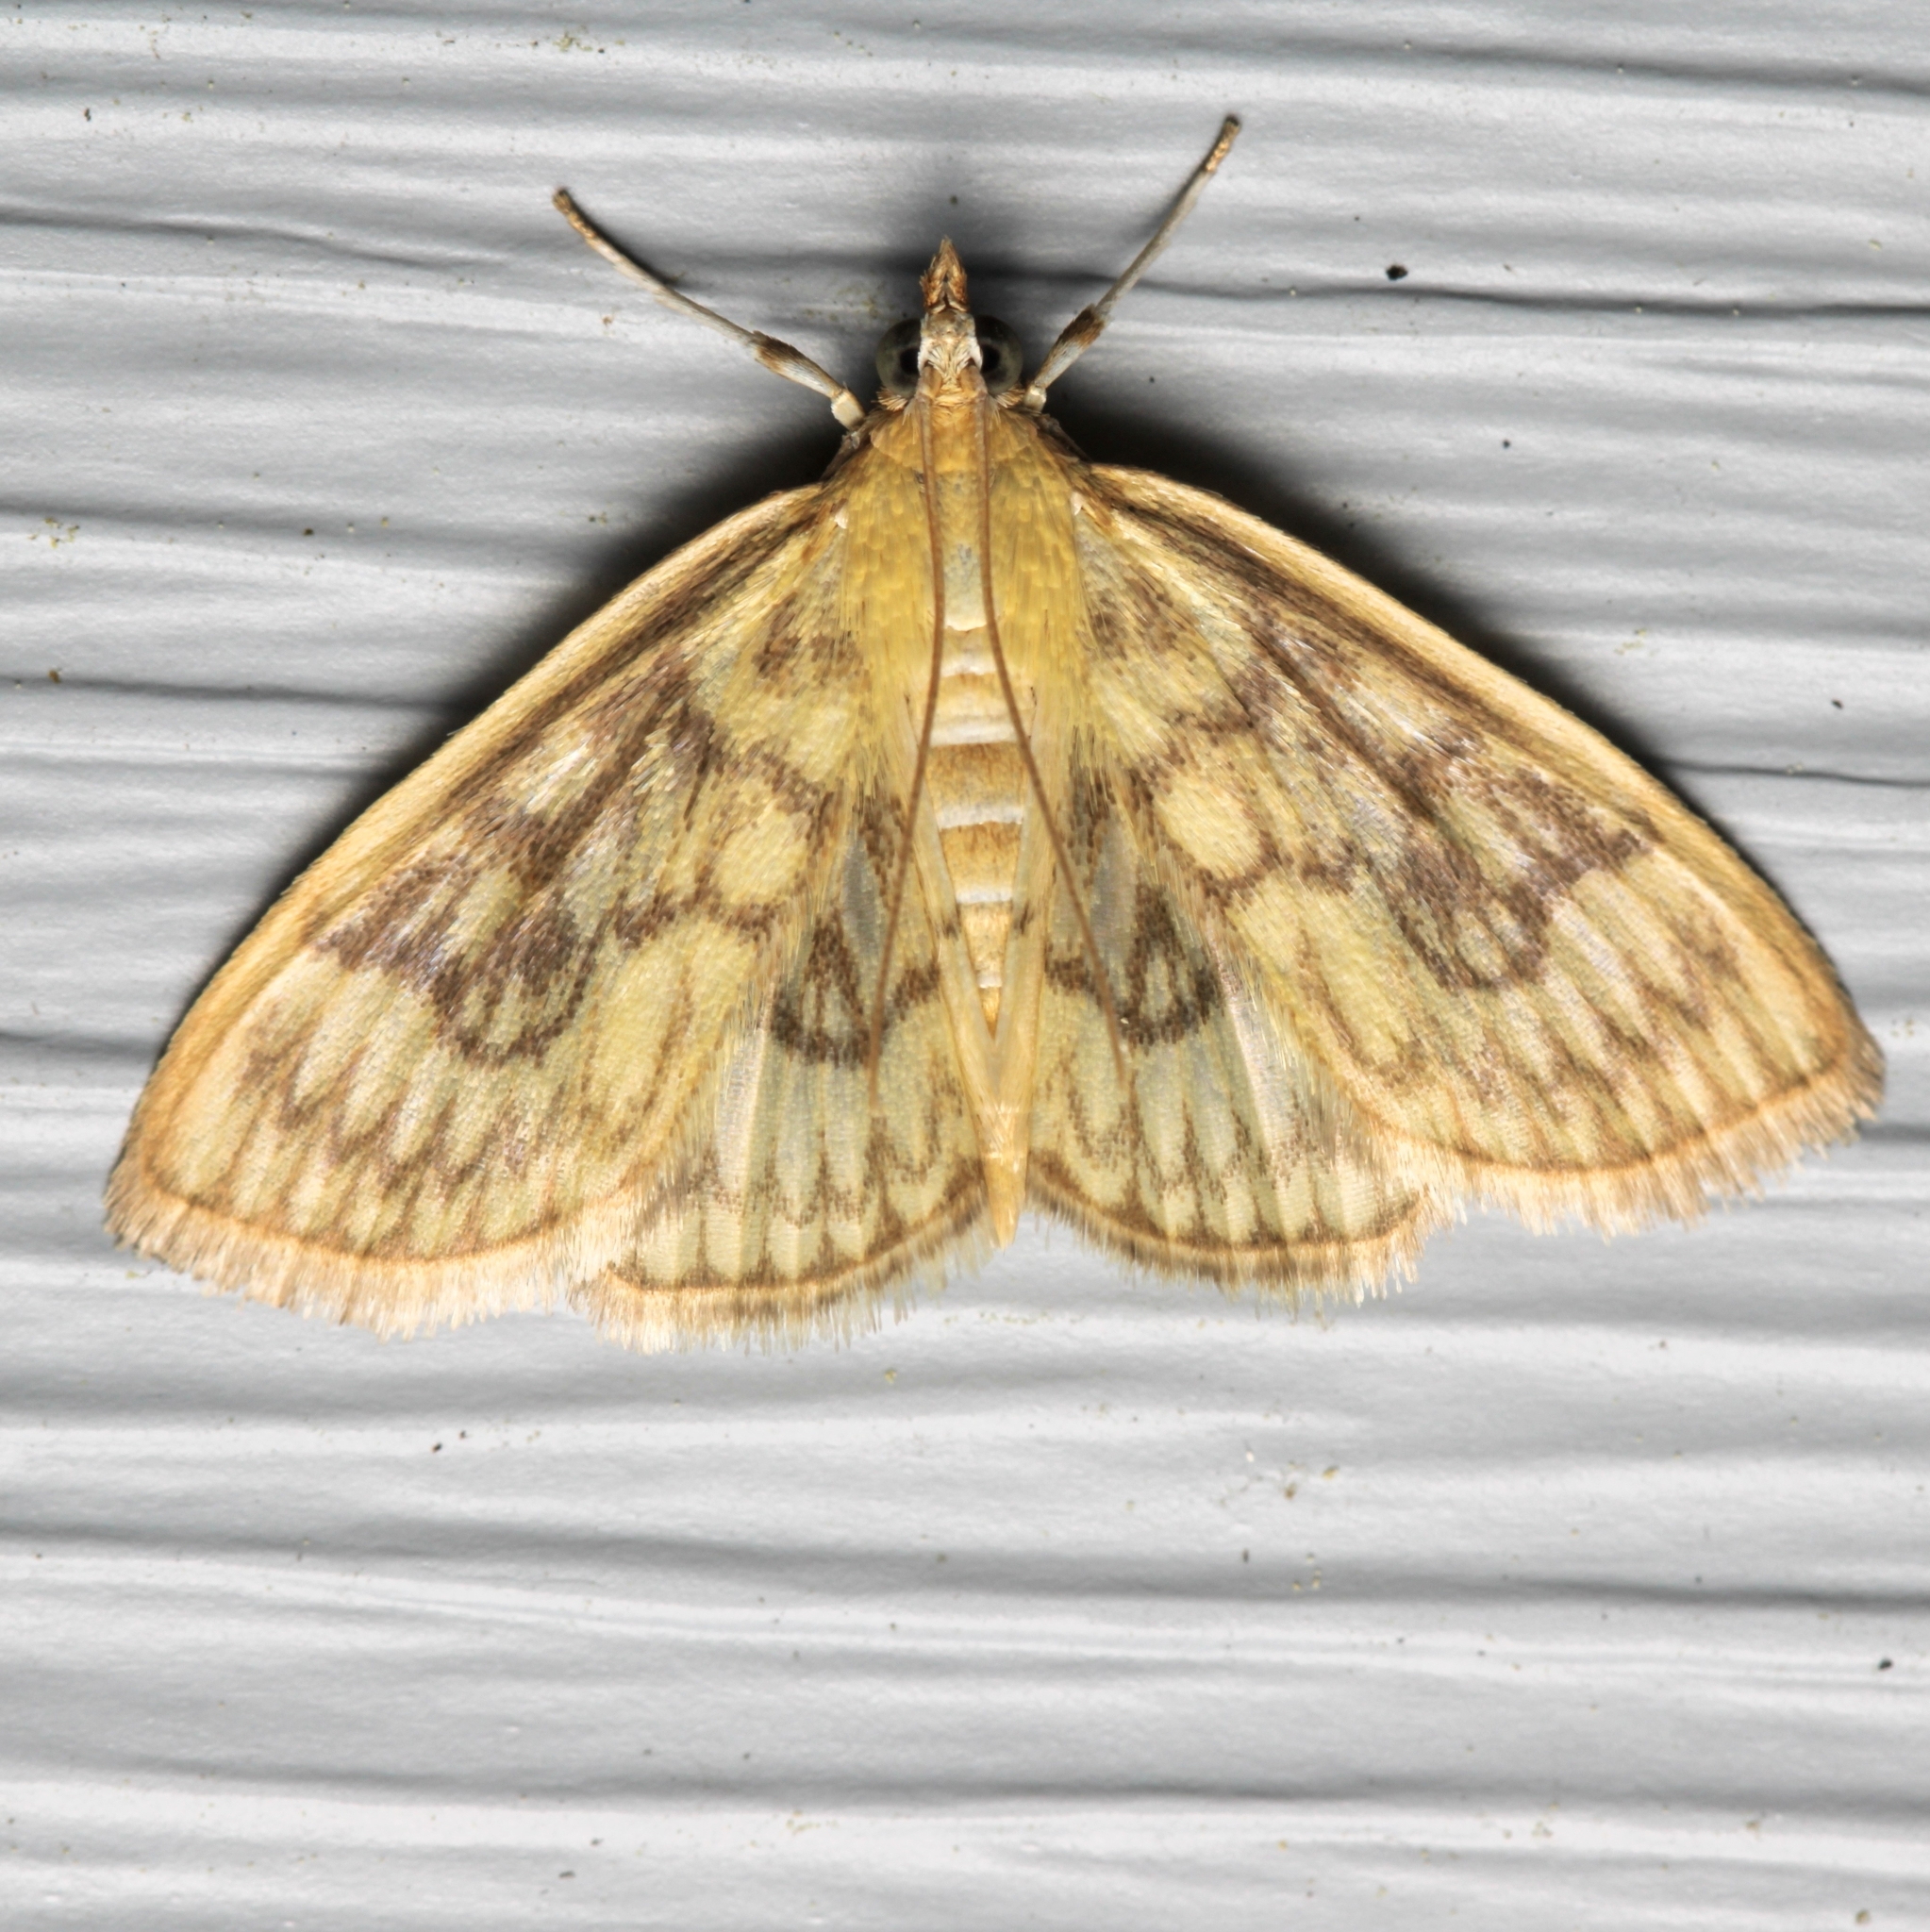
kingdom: Animalia
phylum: Arthropoda
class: Insecta
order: Lepidoptera
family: Crambidae
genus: Crocidophora
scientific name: Crocidophora serratissimalis
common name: Saw-toothed crocidophora moth
